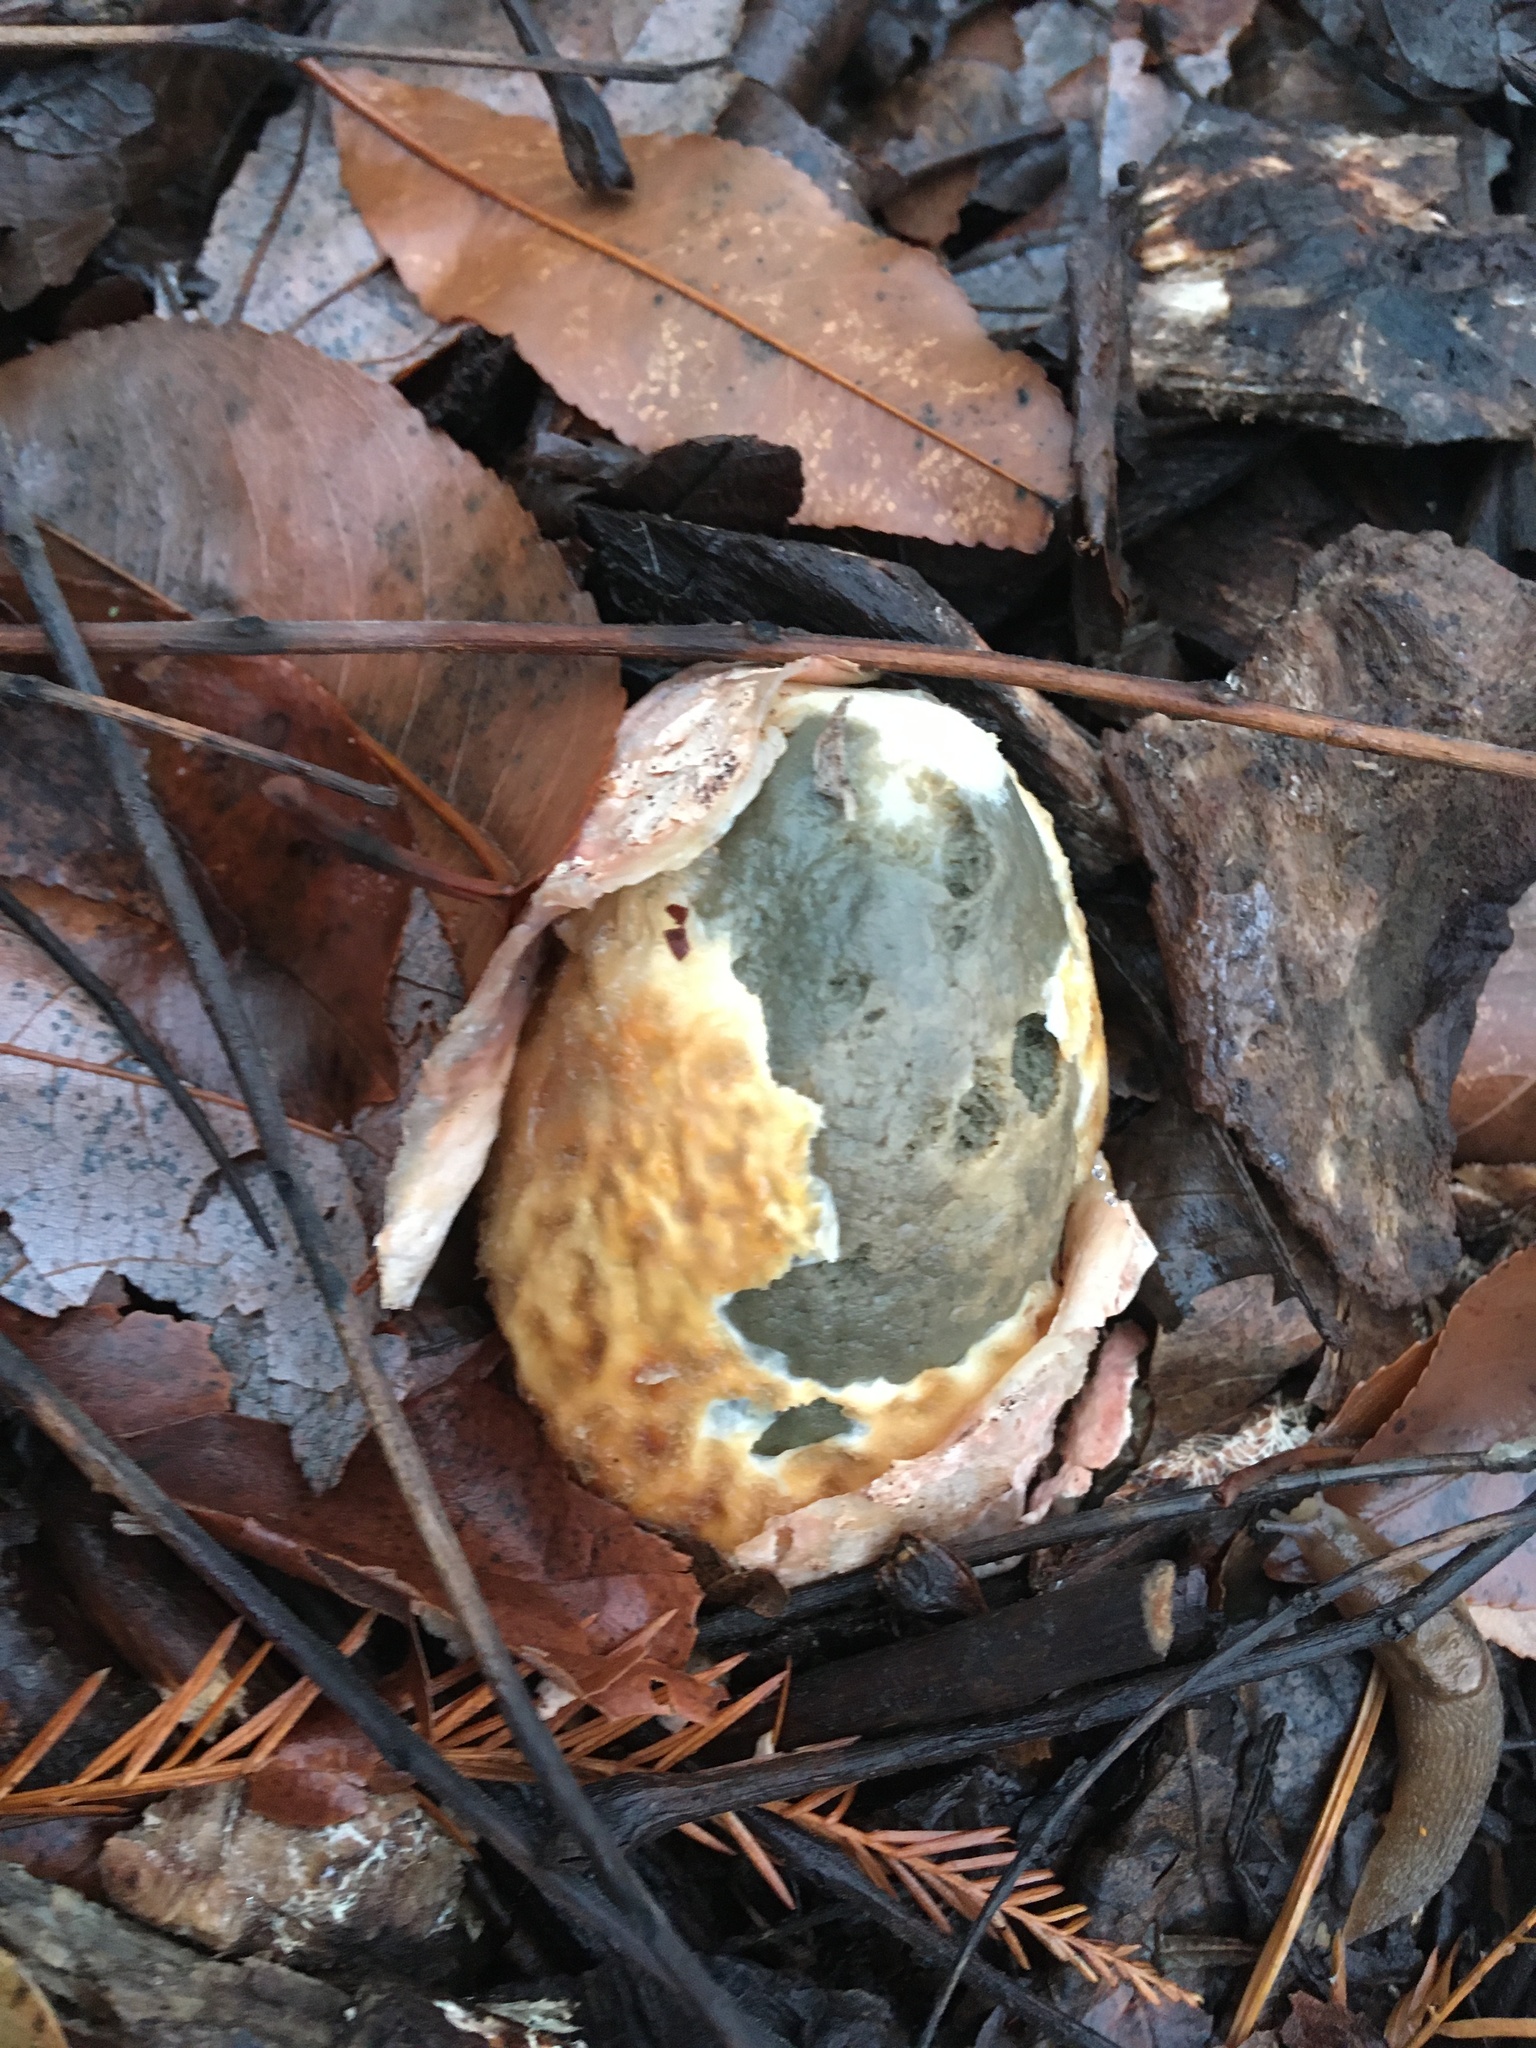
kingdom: Fungi
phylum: Basidiomycota
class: Agaricomycetes
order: Phallales
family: Phallaceae
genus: Phallus
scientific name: Phallus ravenelii
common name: Ravenel's stinkhorn
